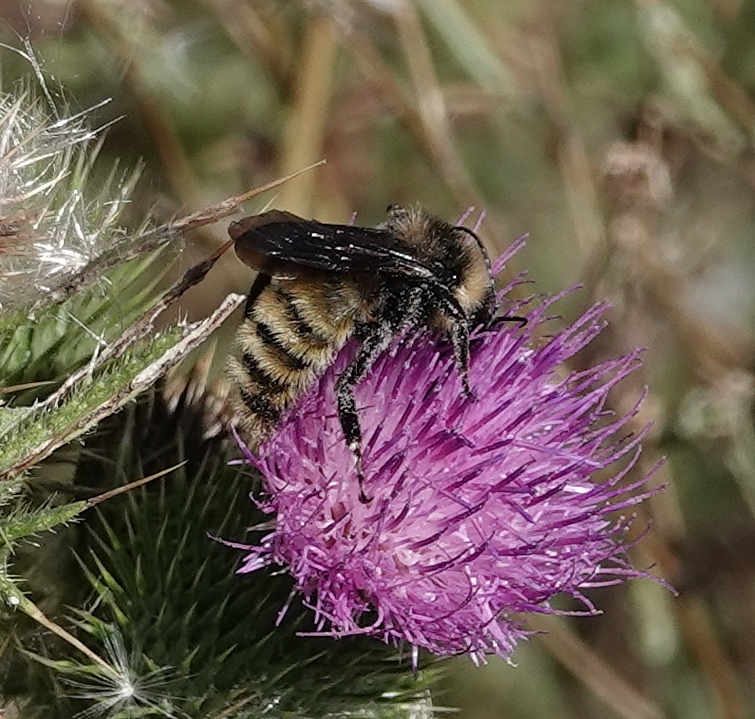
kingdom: Animalia
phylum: Arthropoda
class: Insecta
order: Hymenoptera
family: Apidae
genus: Bombus
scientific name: Bombus pensylvanicus
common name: Bumble bee
